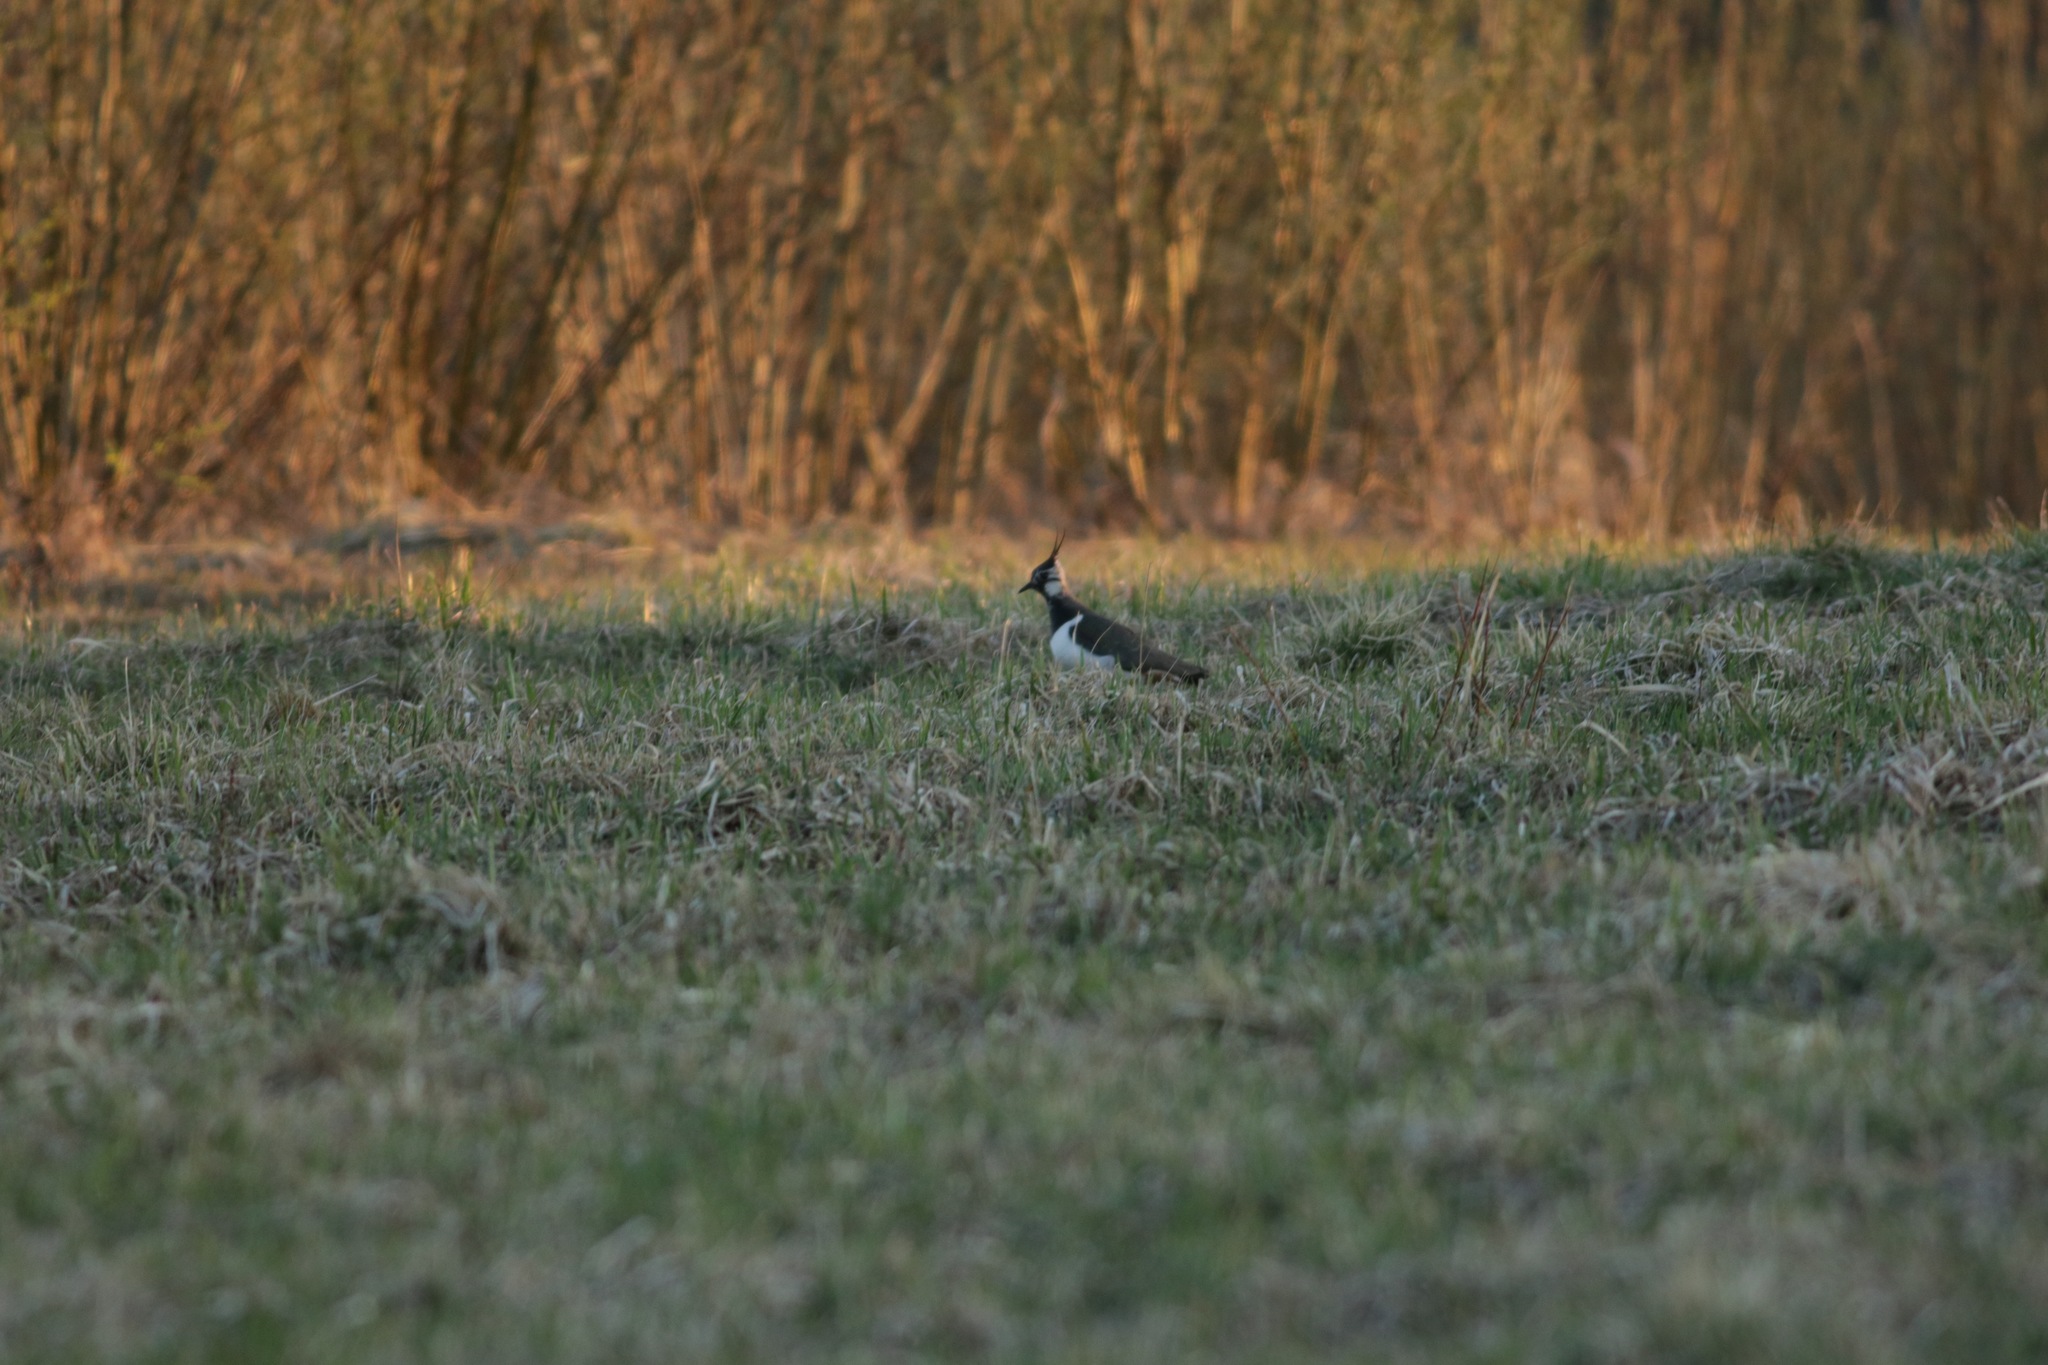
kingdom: Animalia
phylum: Chordata
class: Aves
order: Charadriiformes
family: Charadriidae
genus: Vanellus
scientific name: Vanellus vanellus
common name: Northern lapwing
